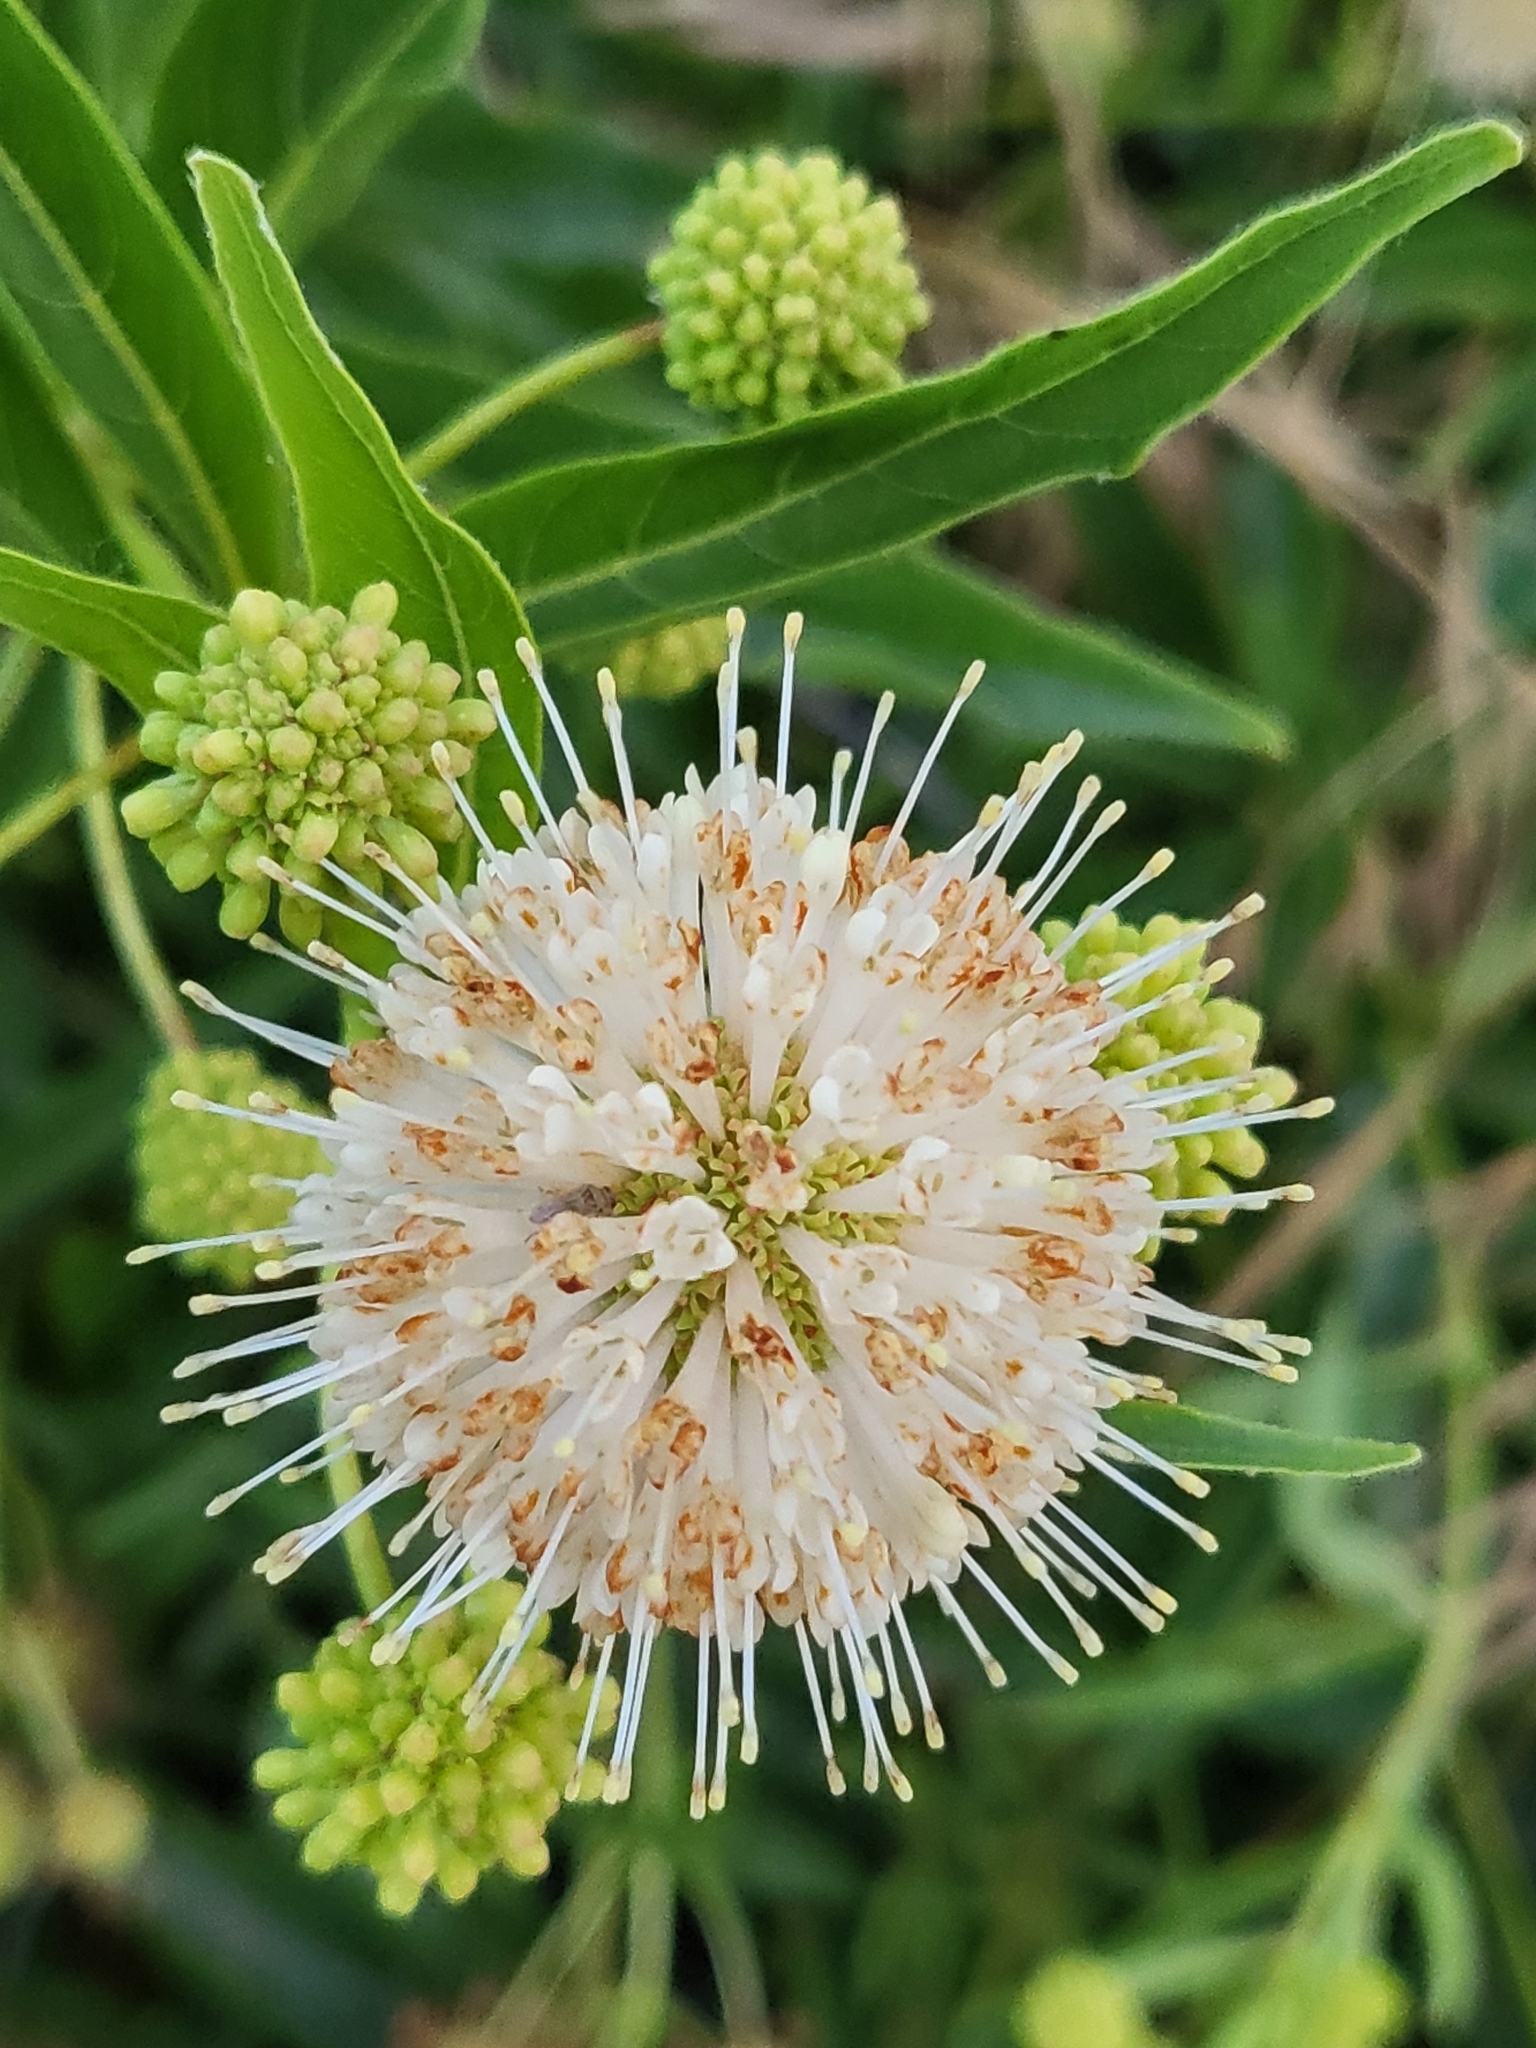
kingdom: Plantae
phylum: Tracheophyta
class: Magnoliopsida
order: Gentianales
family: Rubiaceae
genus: Cephalanthus
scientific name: Cephalanthus occidentalis
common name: Button-willow
